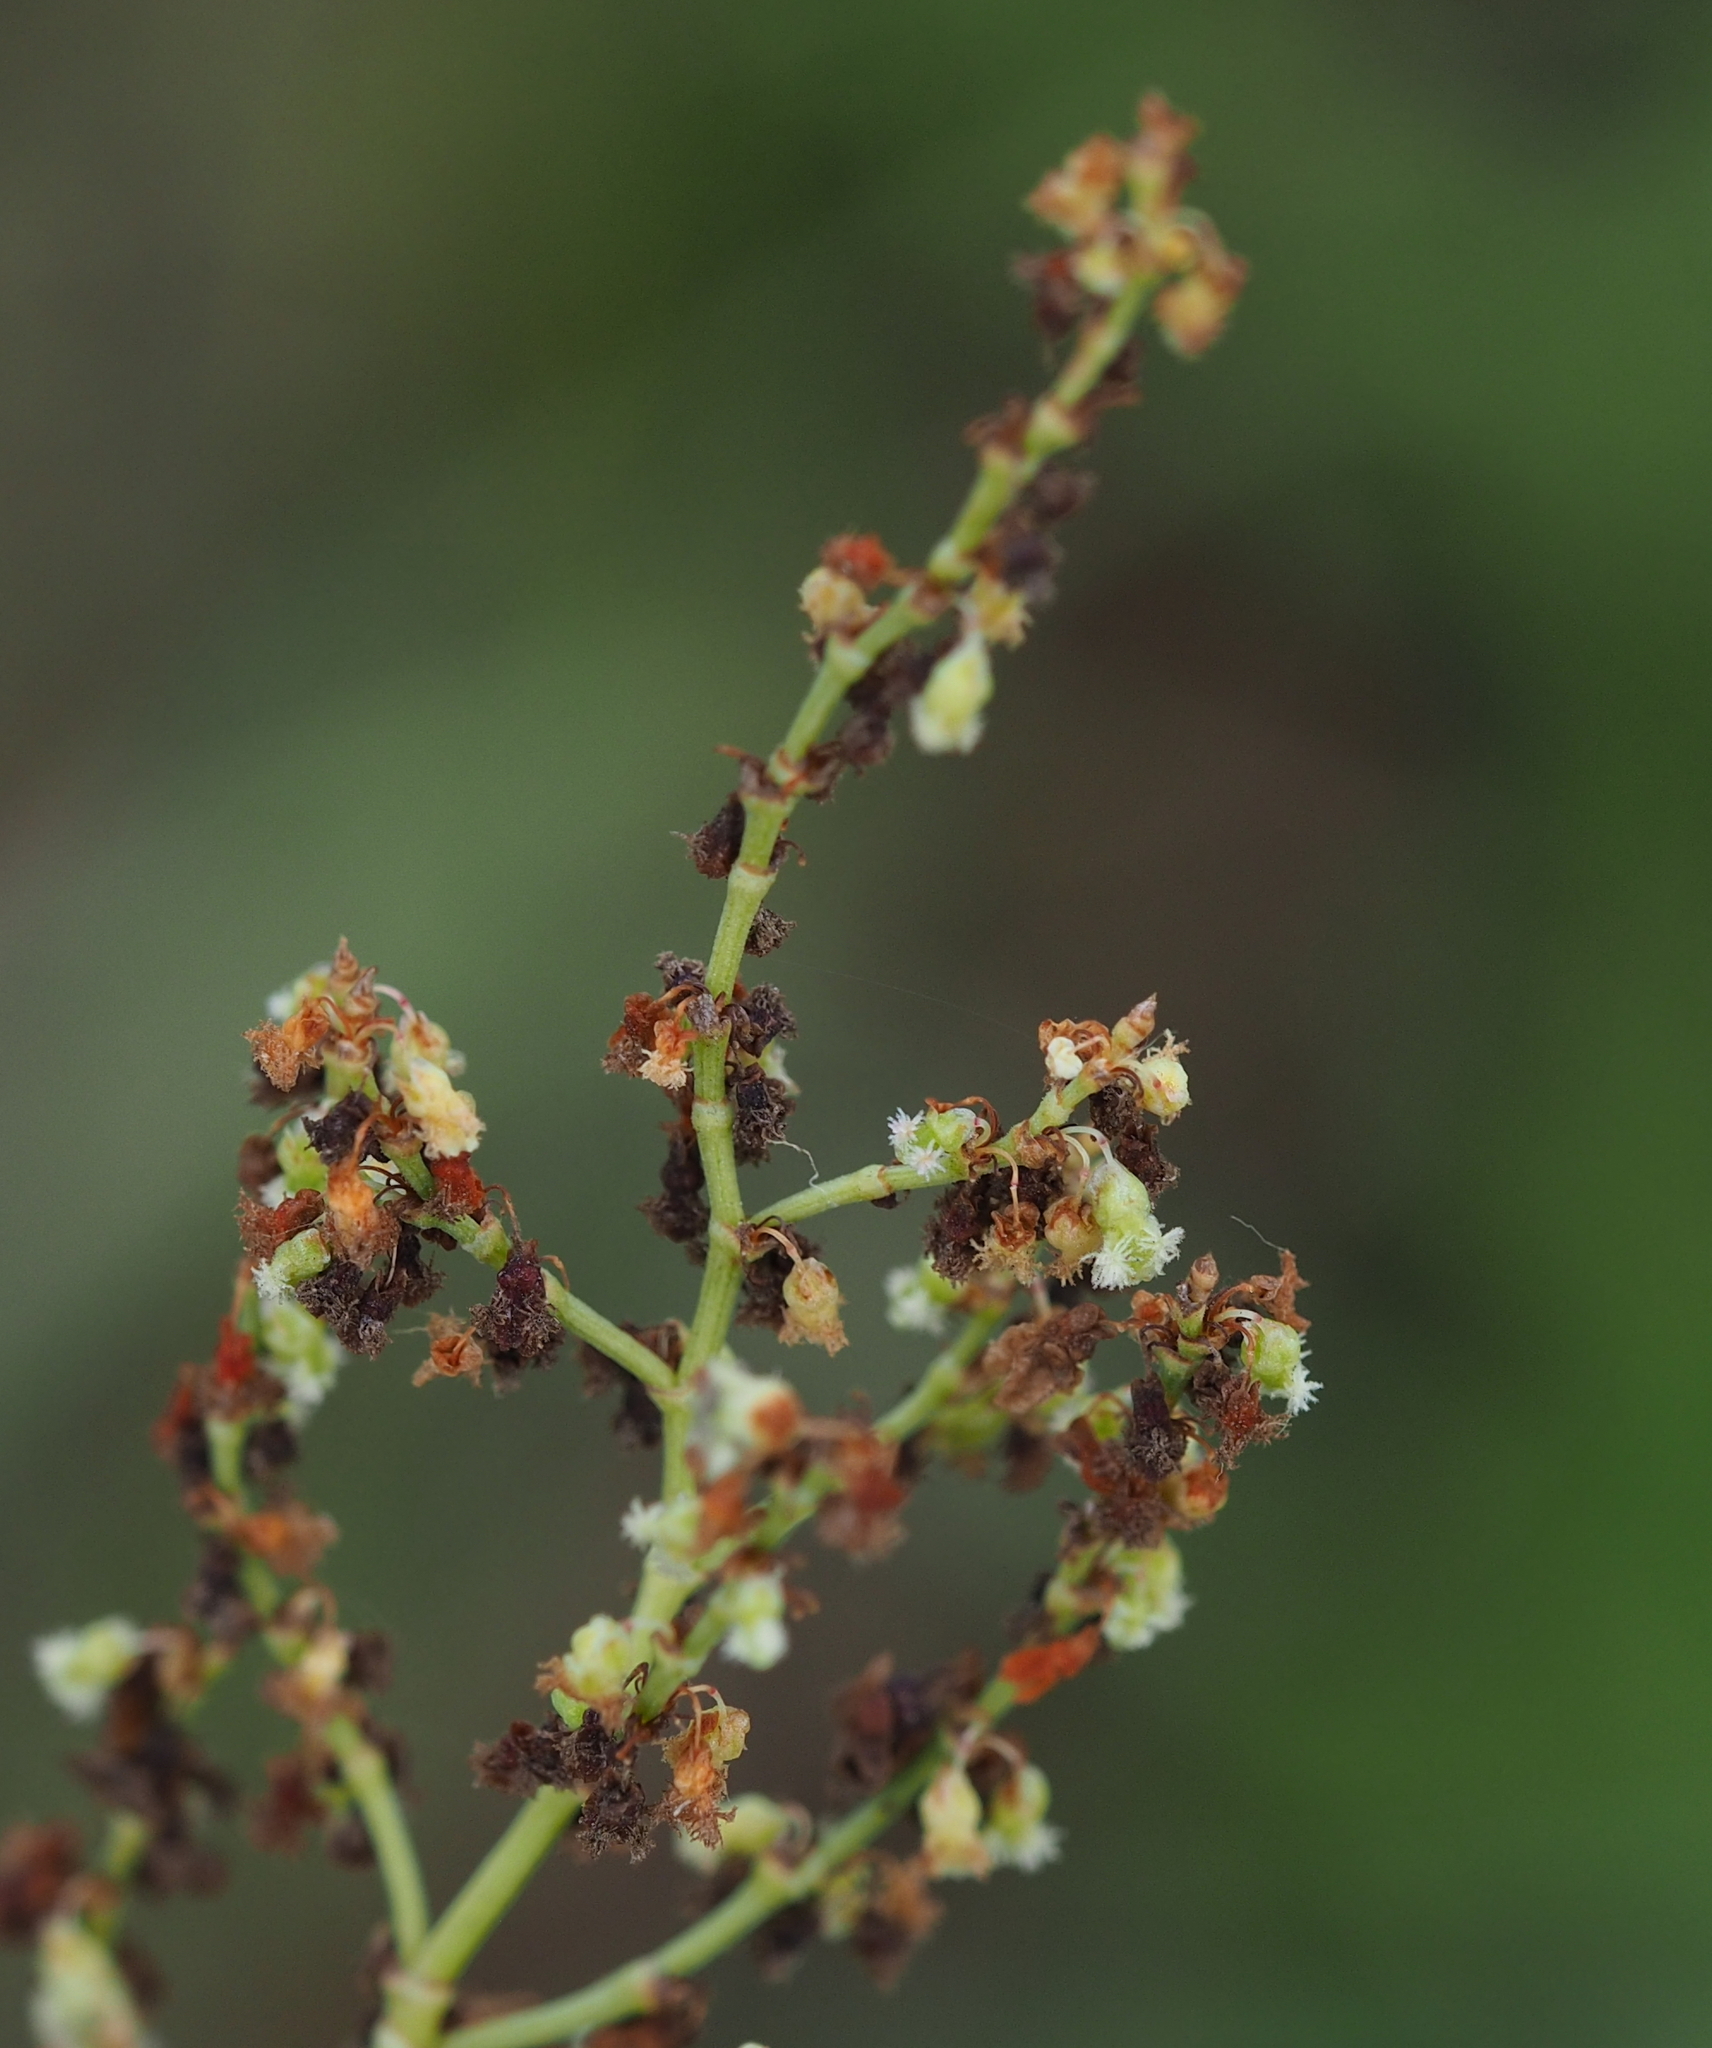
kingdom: Plantae
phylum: Tracheophyta
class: Magnoliopsida
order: Caryophyllales
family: Polygonaceae
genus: Rumex
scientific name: Rumex thyrsiflorus
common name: Garden sorrel
